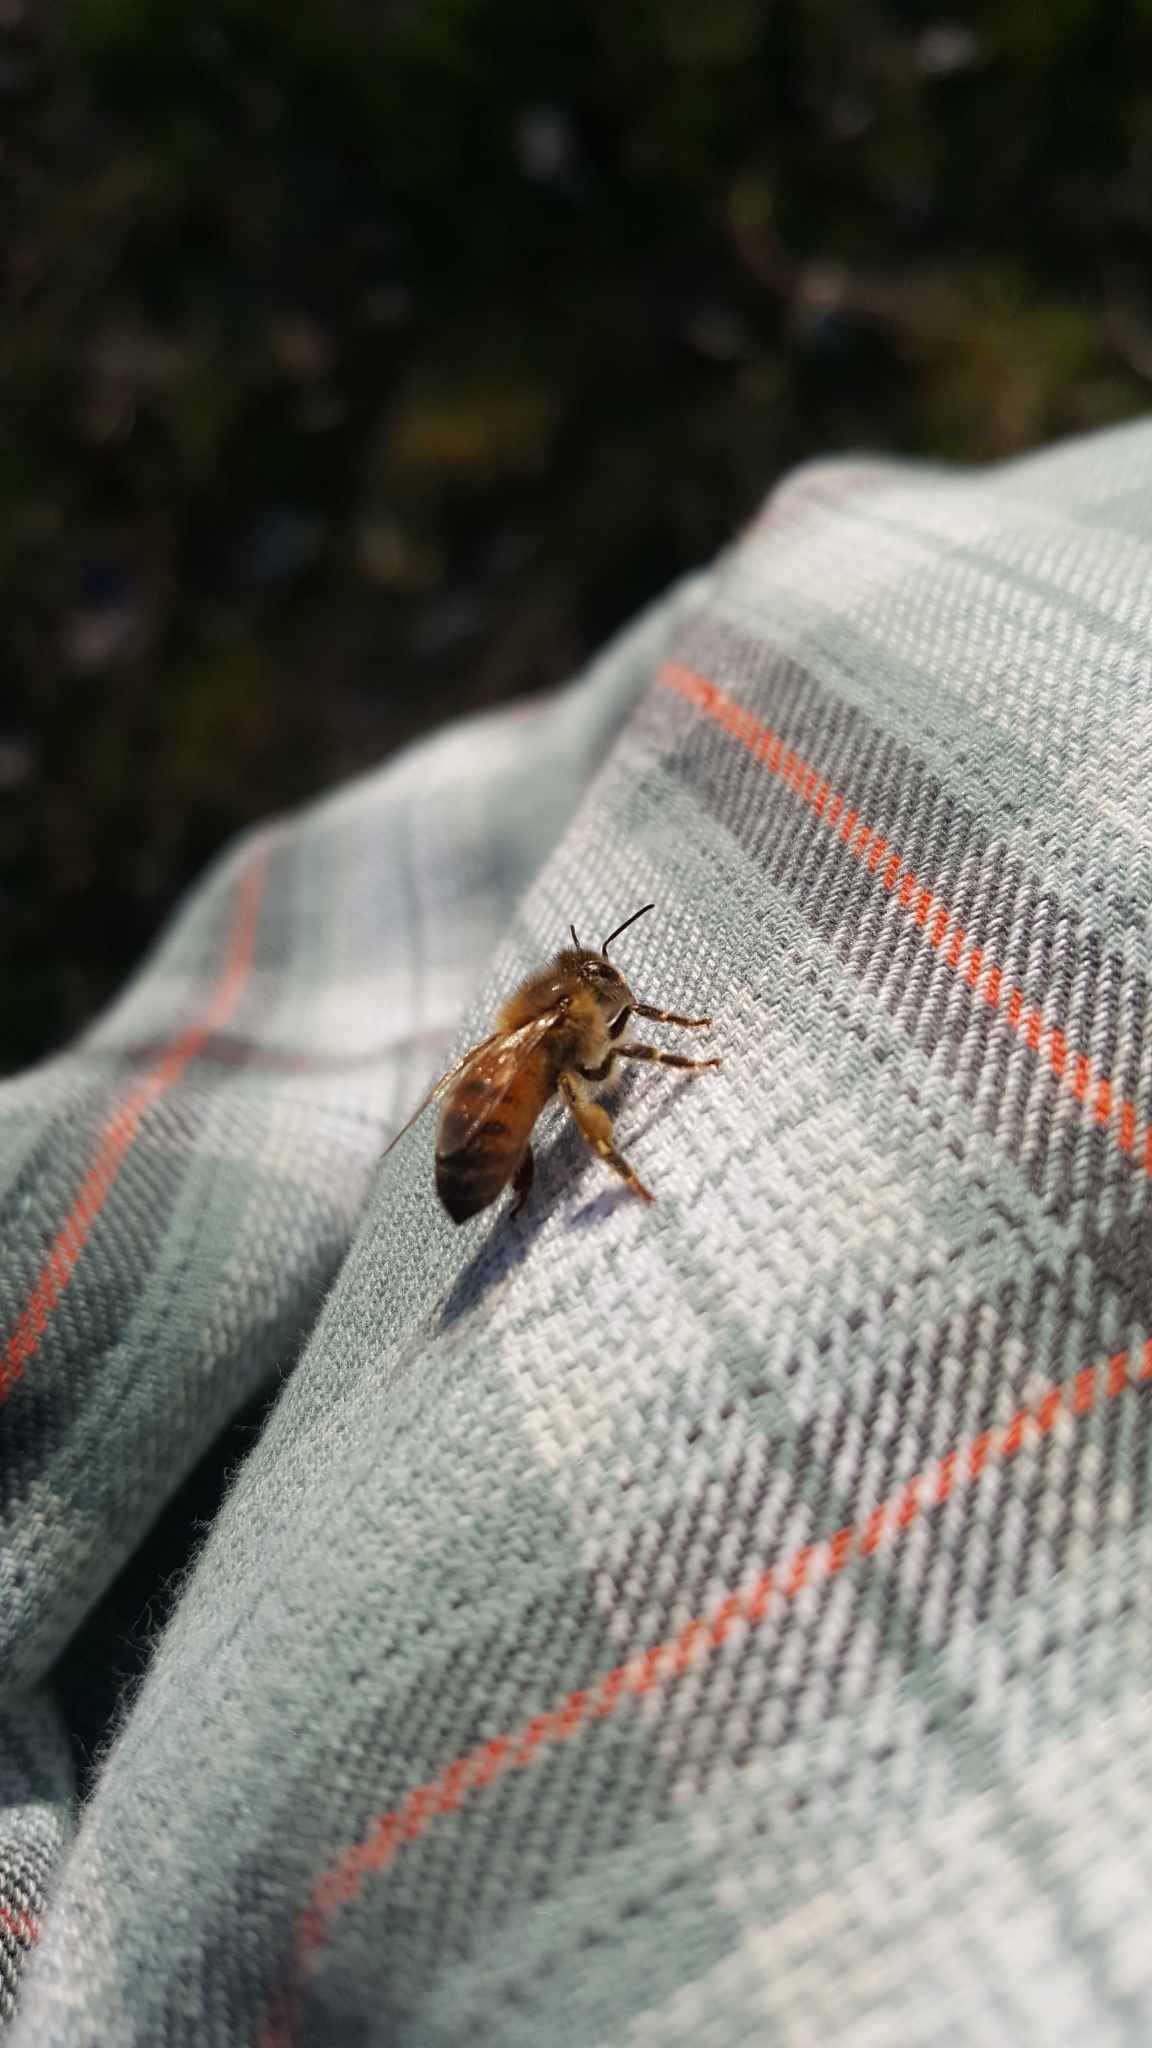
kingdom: Animalia
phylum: Arthropoda
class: Insecta
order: Hymenoptera
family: Apidae
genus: Apis
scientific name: Apis mellifera
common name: Honey bee
